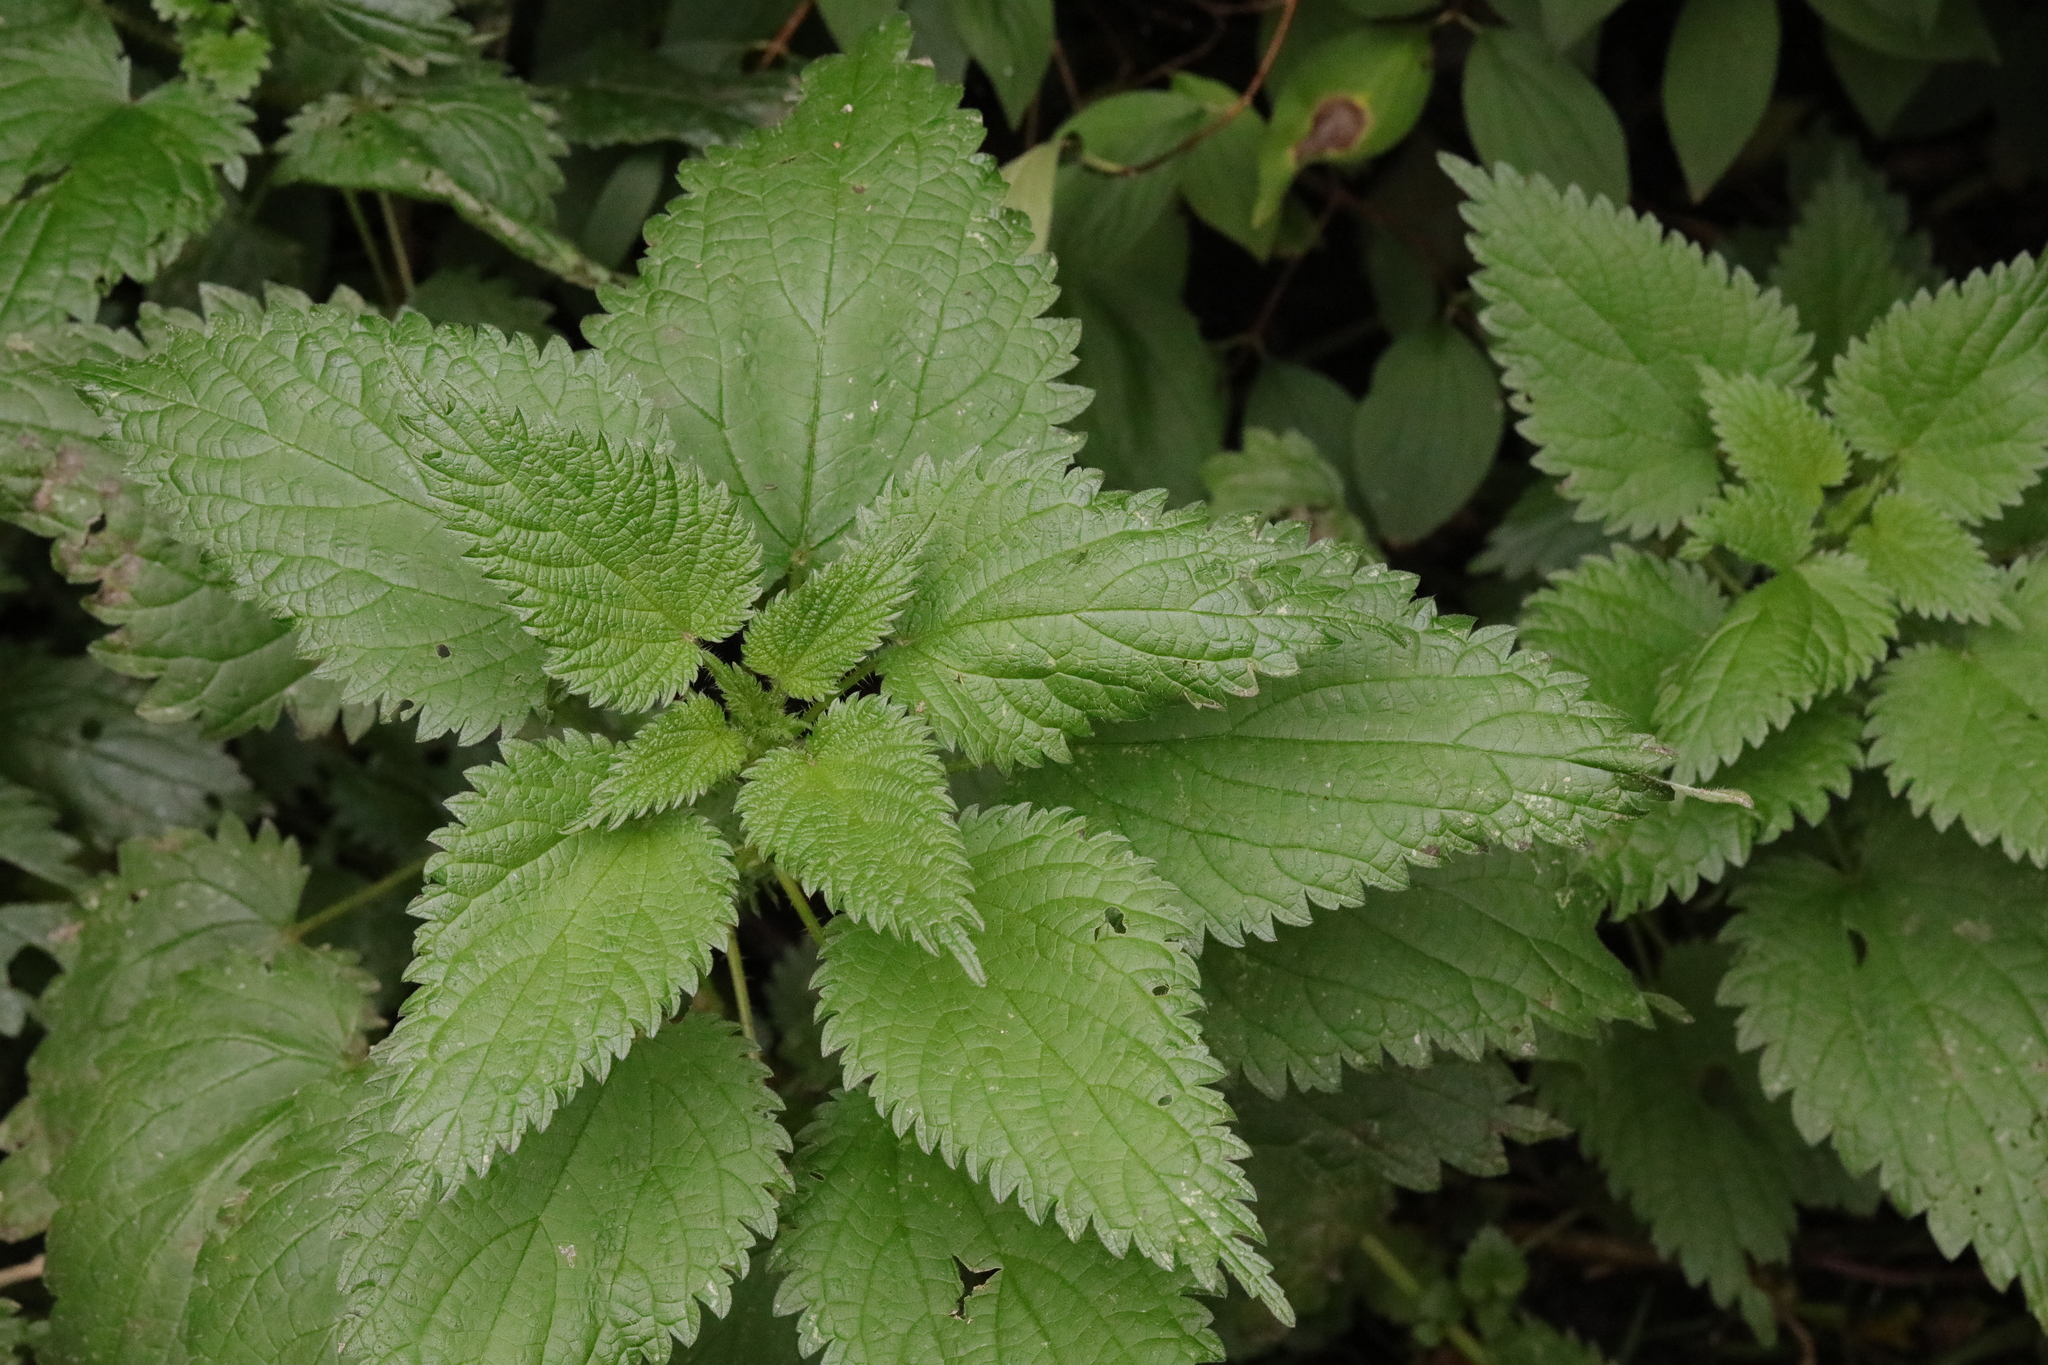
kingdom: Plantae
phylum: Tracheophyta
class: Magnoliopsida
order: Rosales
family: Urticaceae
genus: Urtica
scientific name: Urtica dioica
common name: Common nettle
